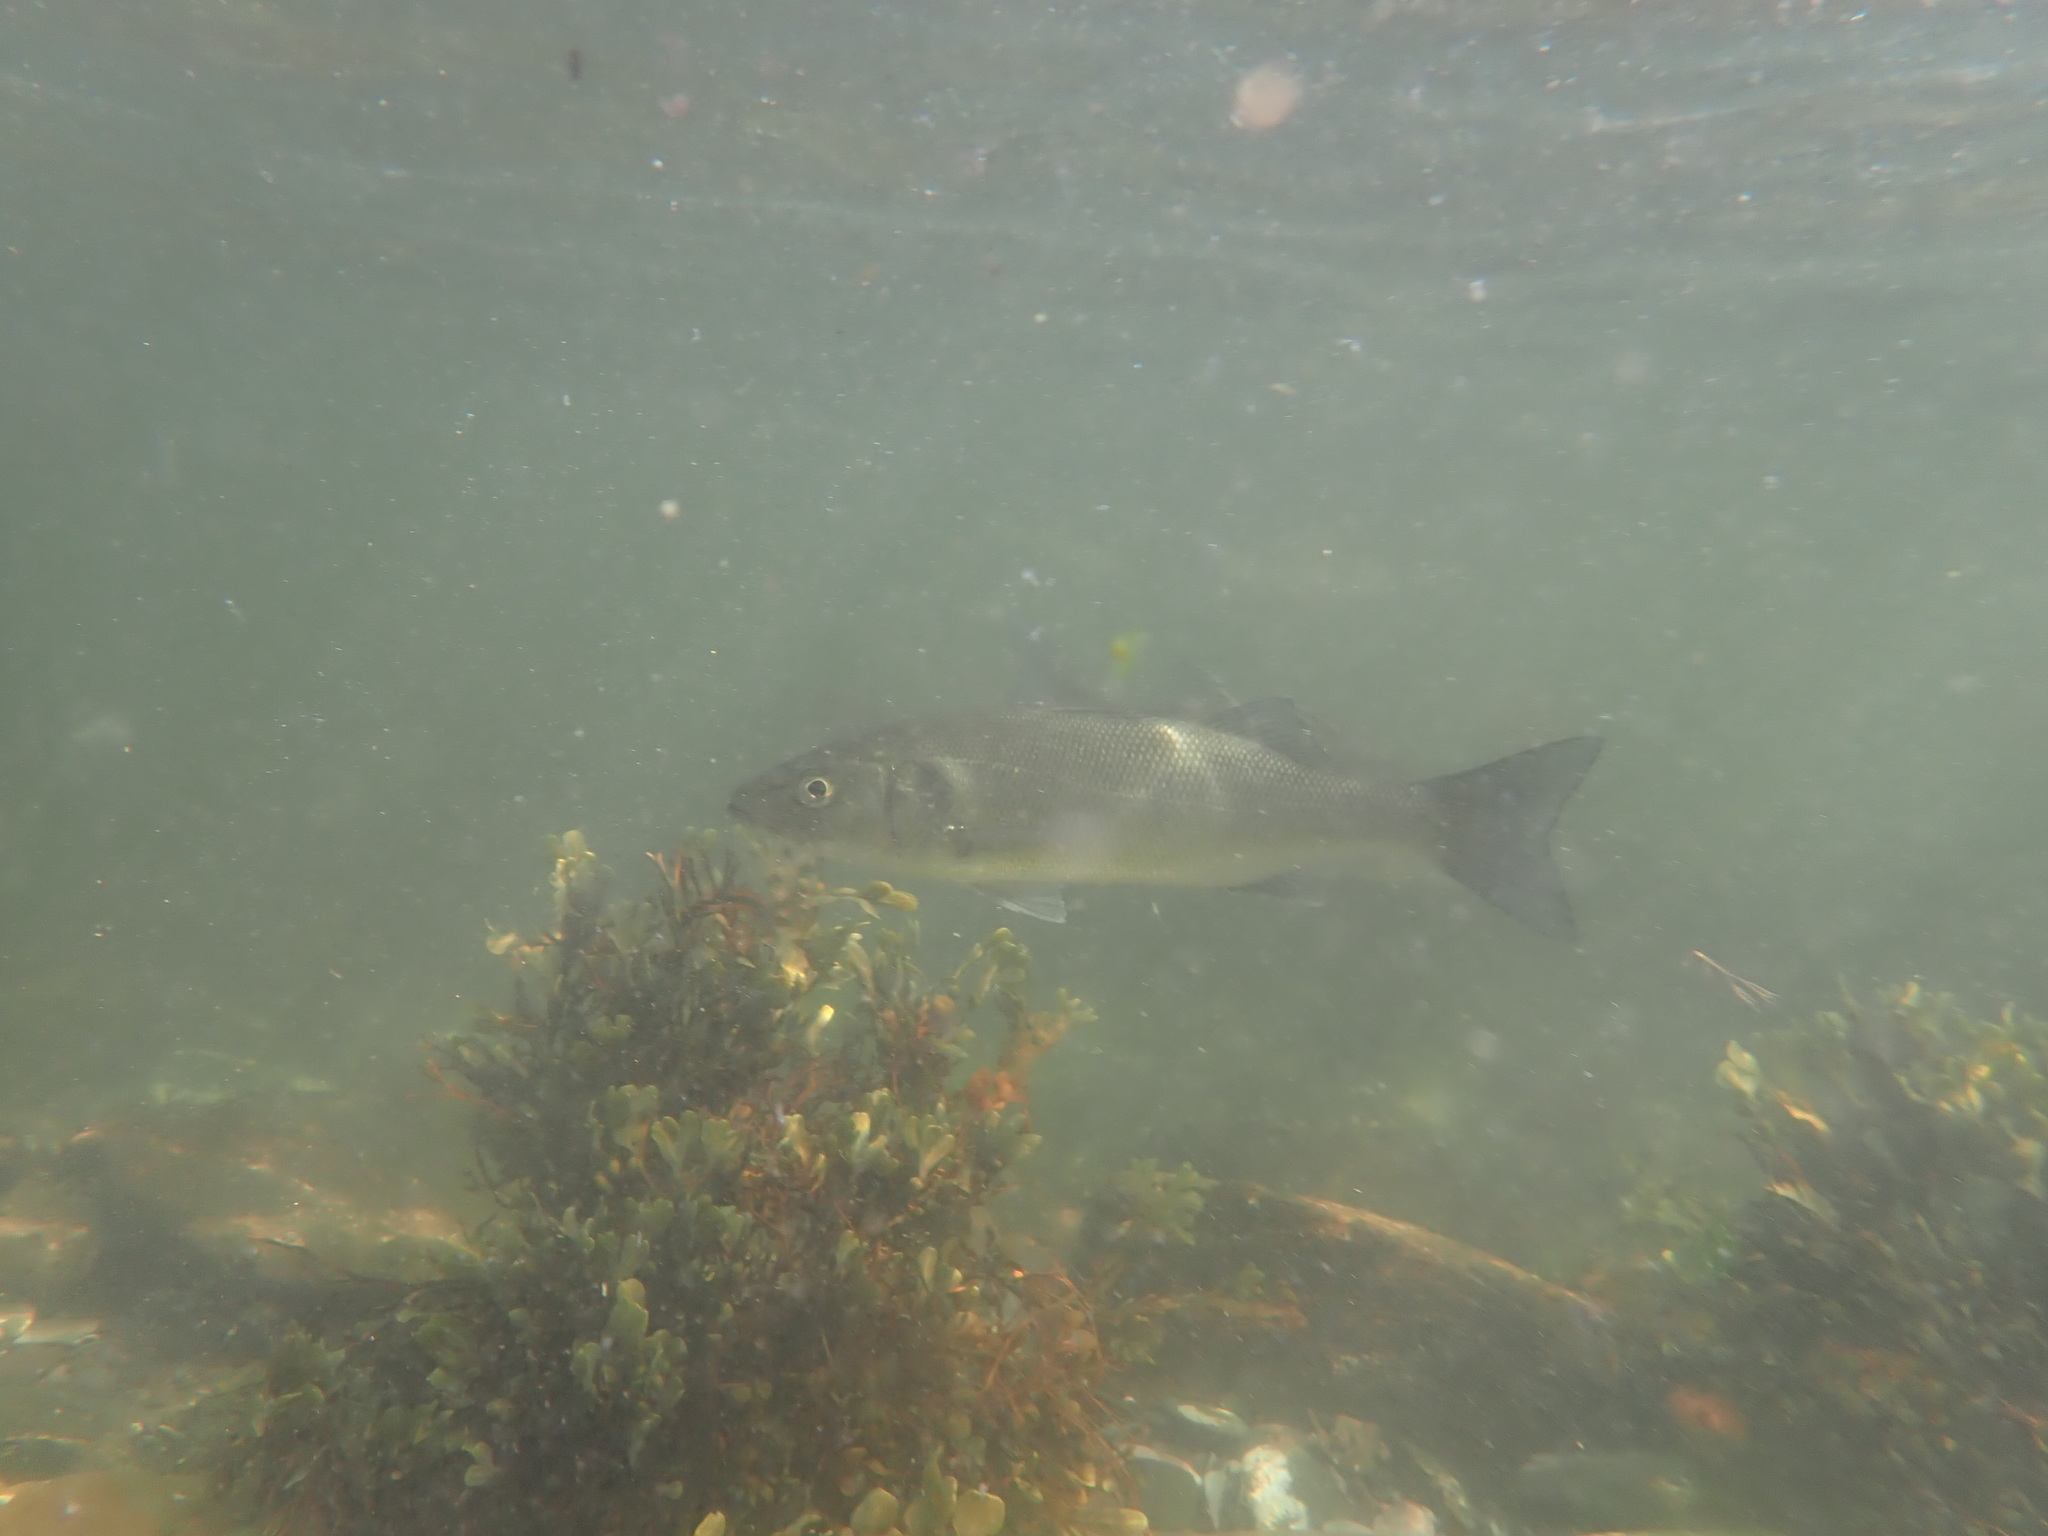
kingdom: Animalia
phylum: Chordata
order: Perciformes
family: Moronidae
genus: Dicentrarchus
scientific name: Dicentrarchus labrax
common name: European seabass
